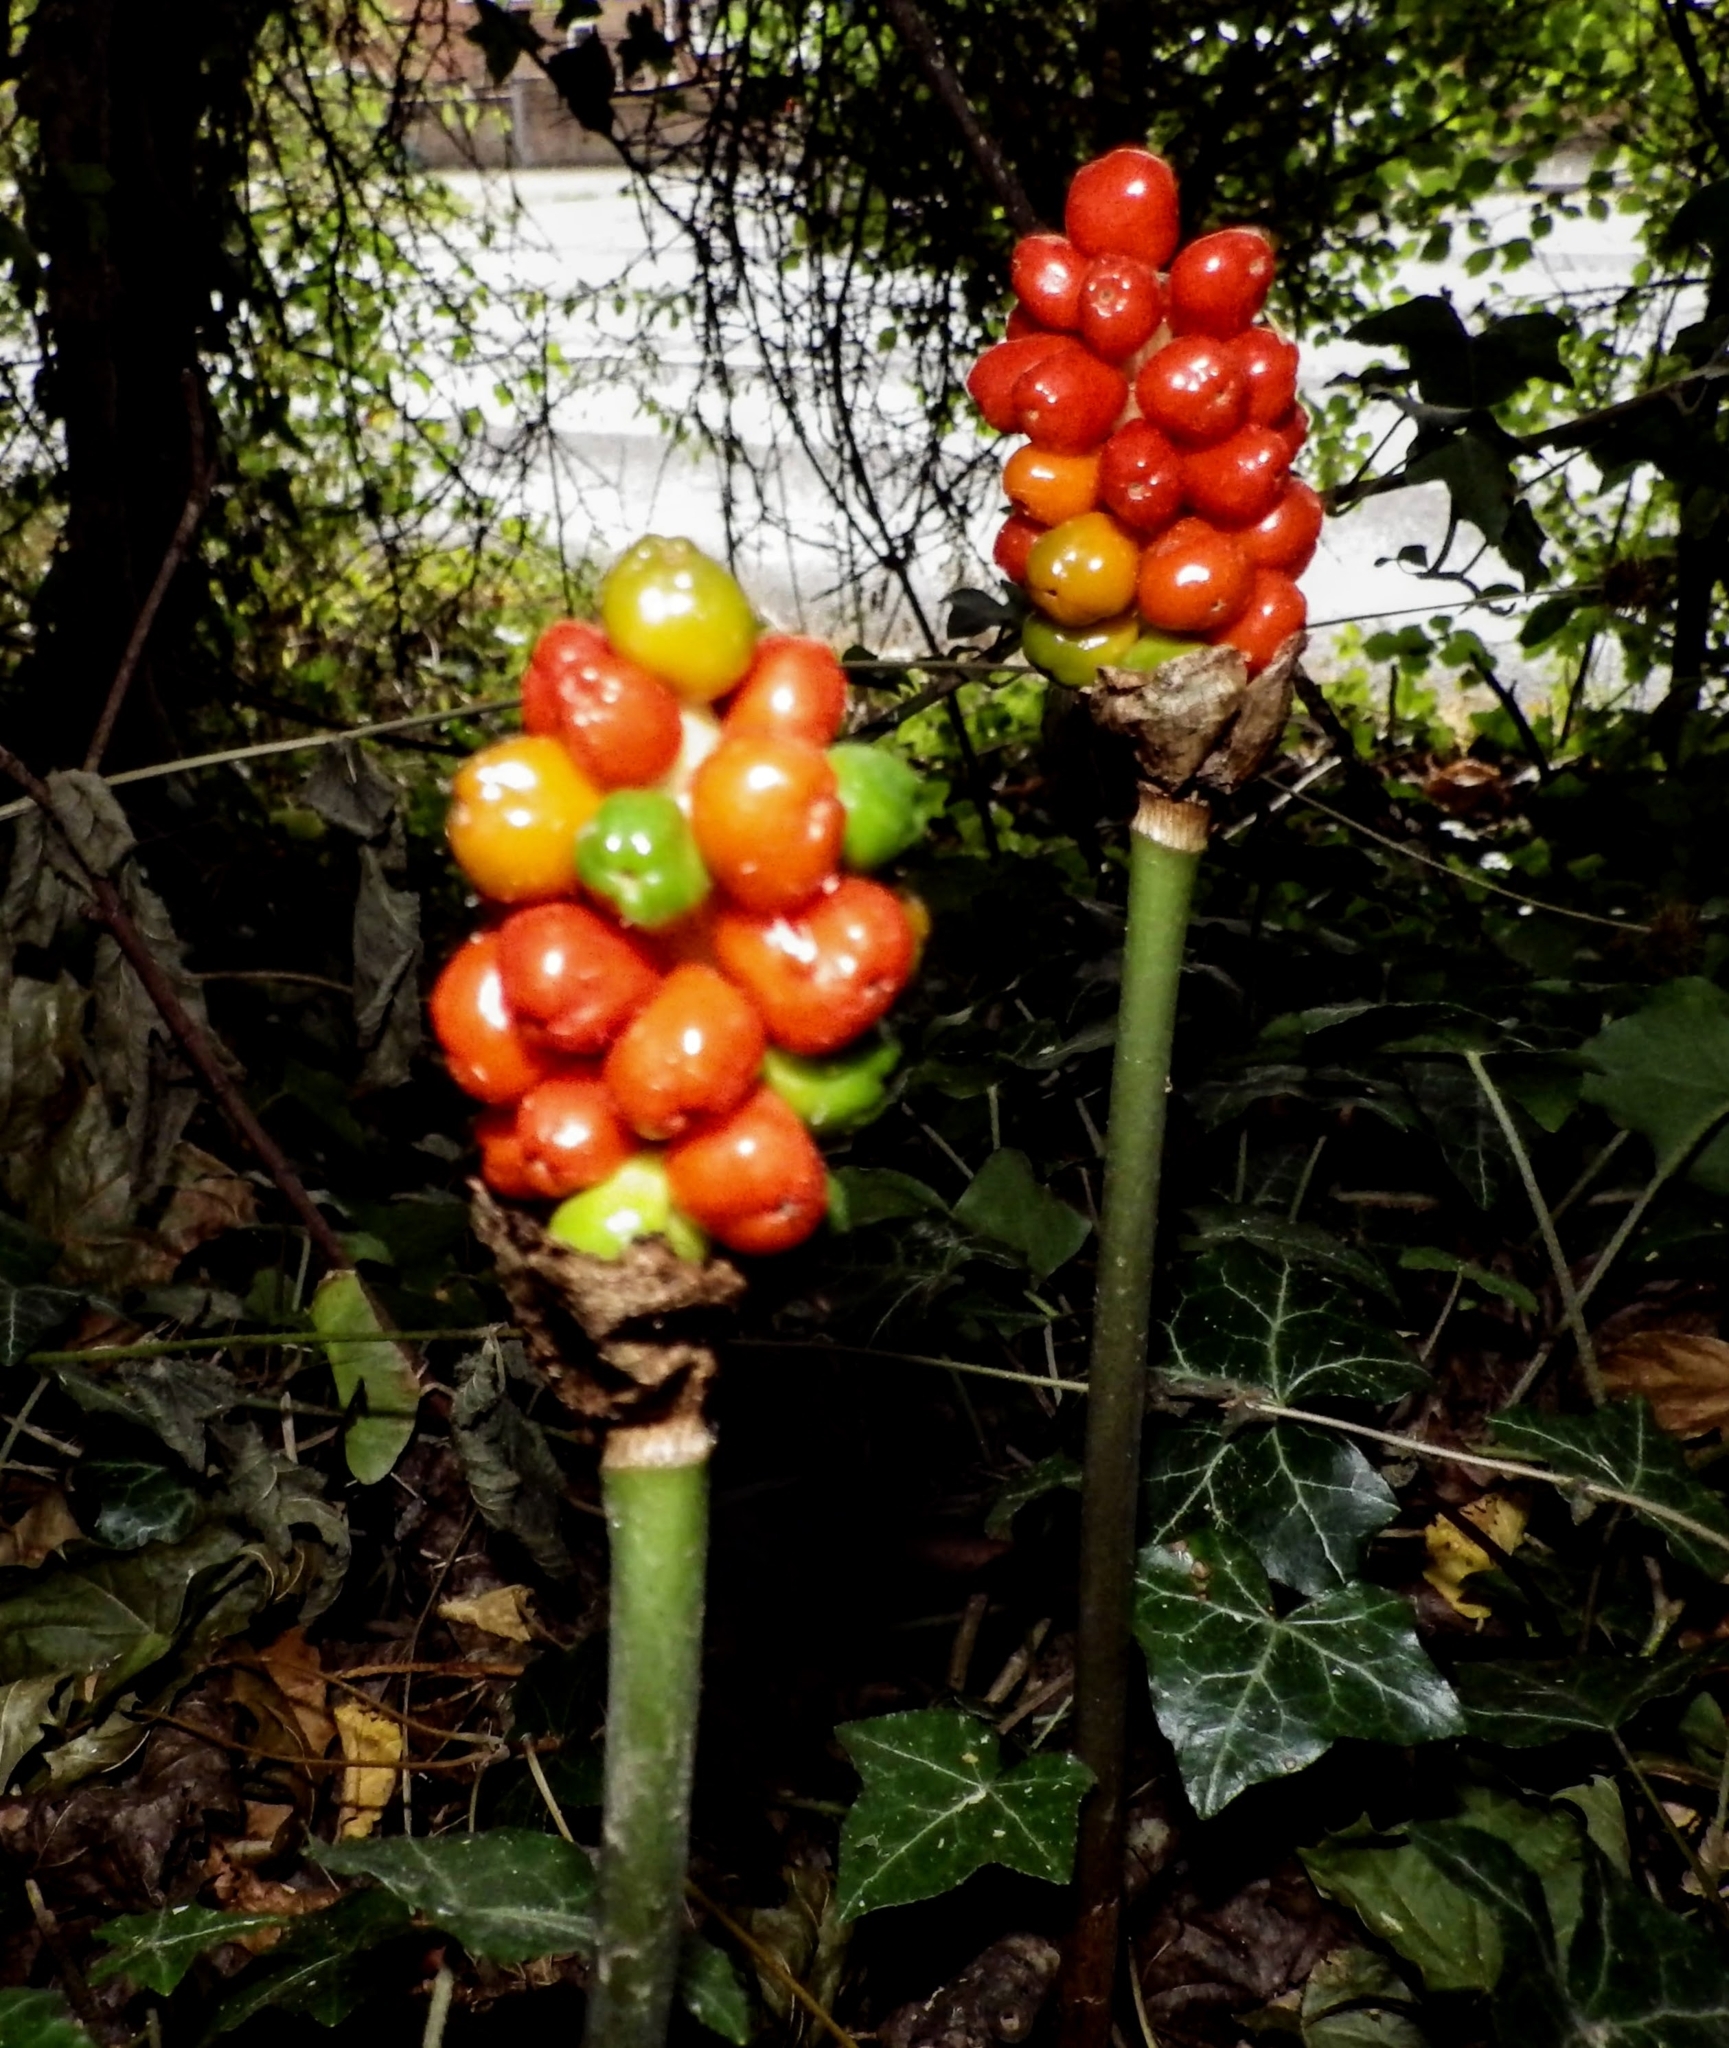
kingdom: Plantae
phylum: Tracheophyta
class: Liliopsida
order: Alismatales
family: Araceae
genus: Arum
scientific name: Arum maculatum
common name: Lords-and-ladies
